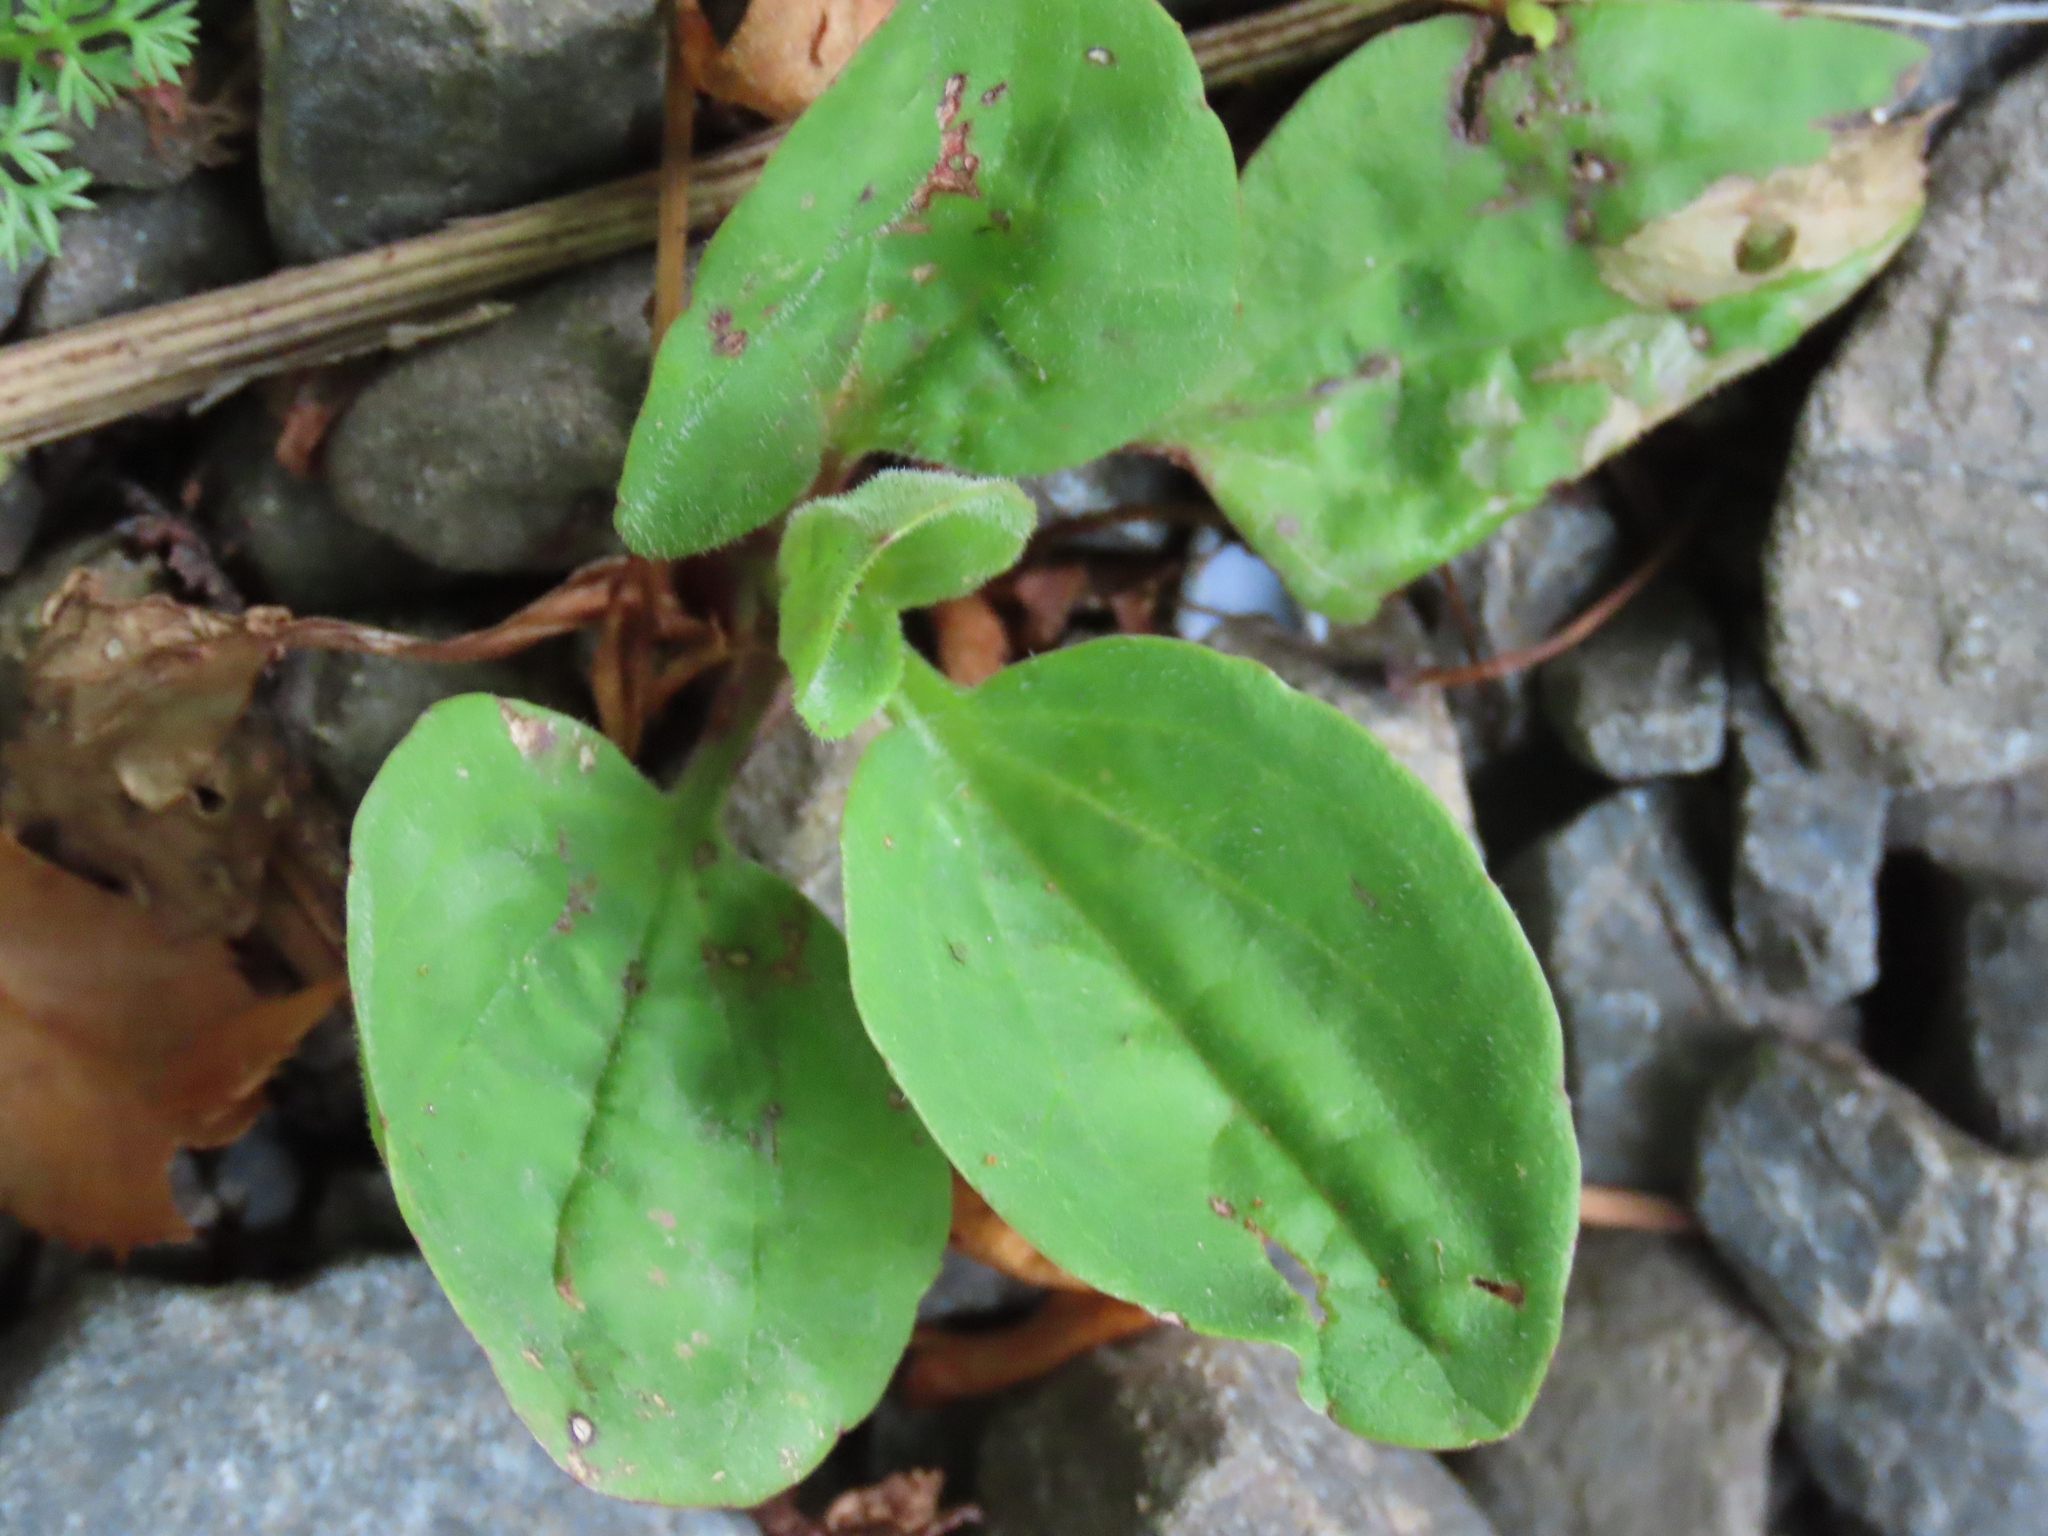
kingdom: Plantae
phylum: Tracheophyta
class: Magnoliopsida
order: Lamiales
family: Plantaginaceae
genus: Plantago
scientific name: Plantago major
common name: Common plantain
